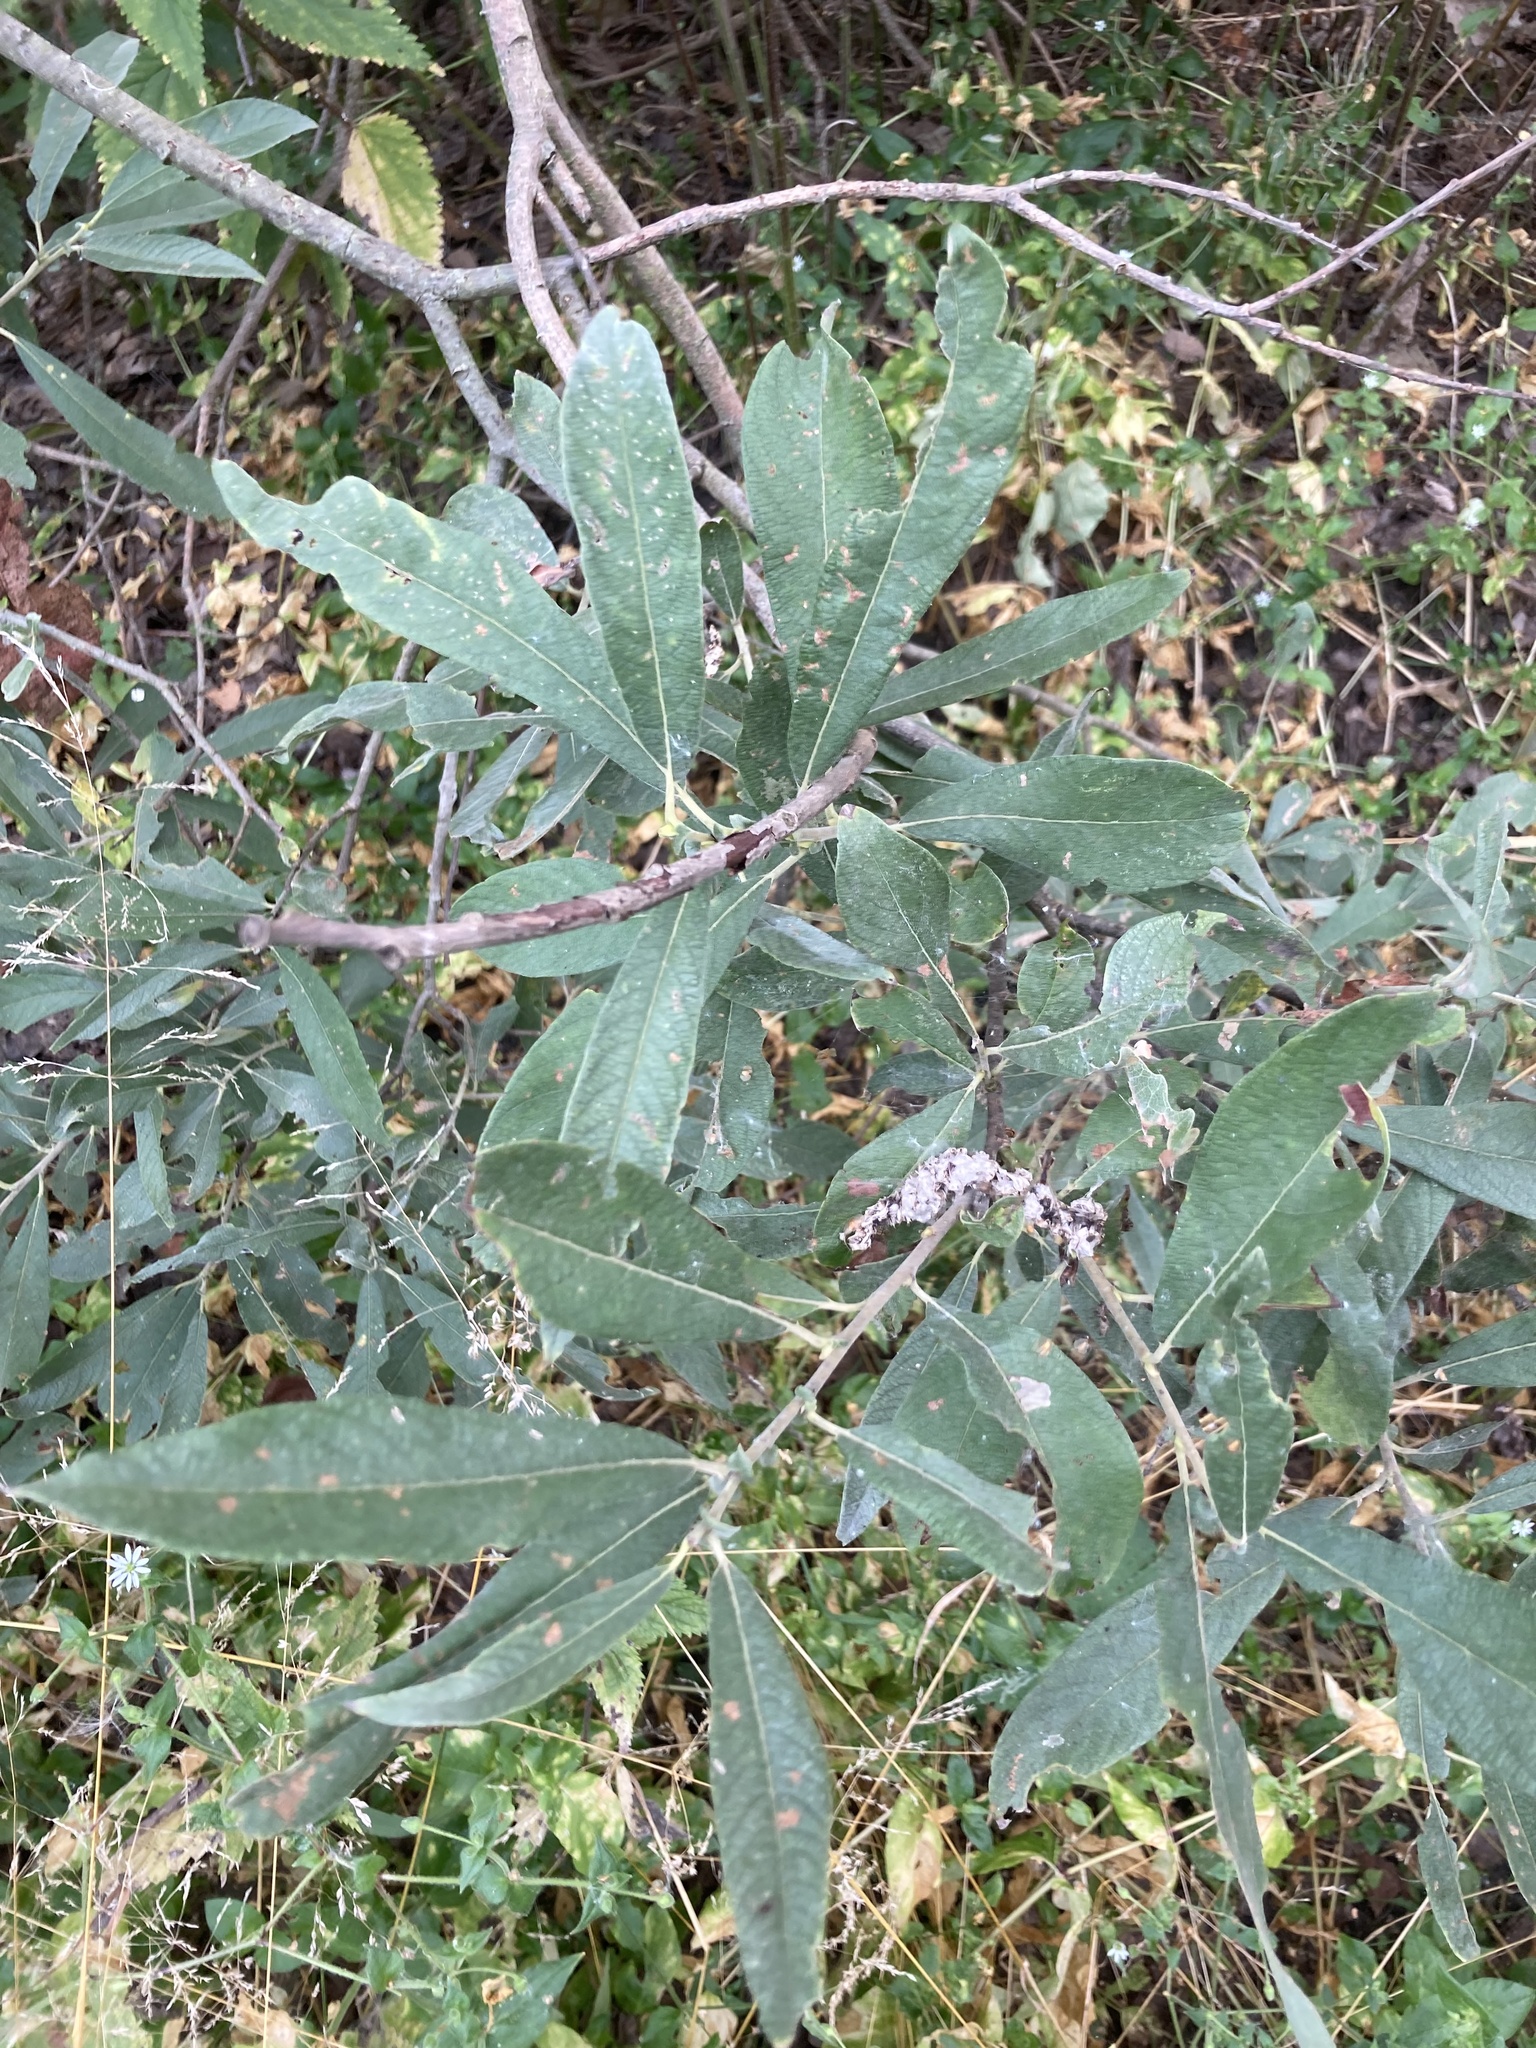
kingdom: Plantae
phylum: Tracheophyta
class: Magnoliopsida
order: Malpighiales
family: Salicaceae
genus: Salix
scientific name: Salix cinerea
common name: Common sallow
